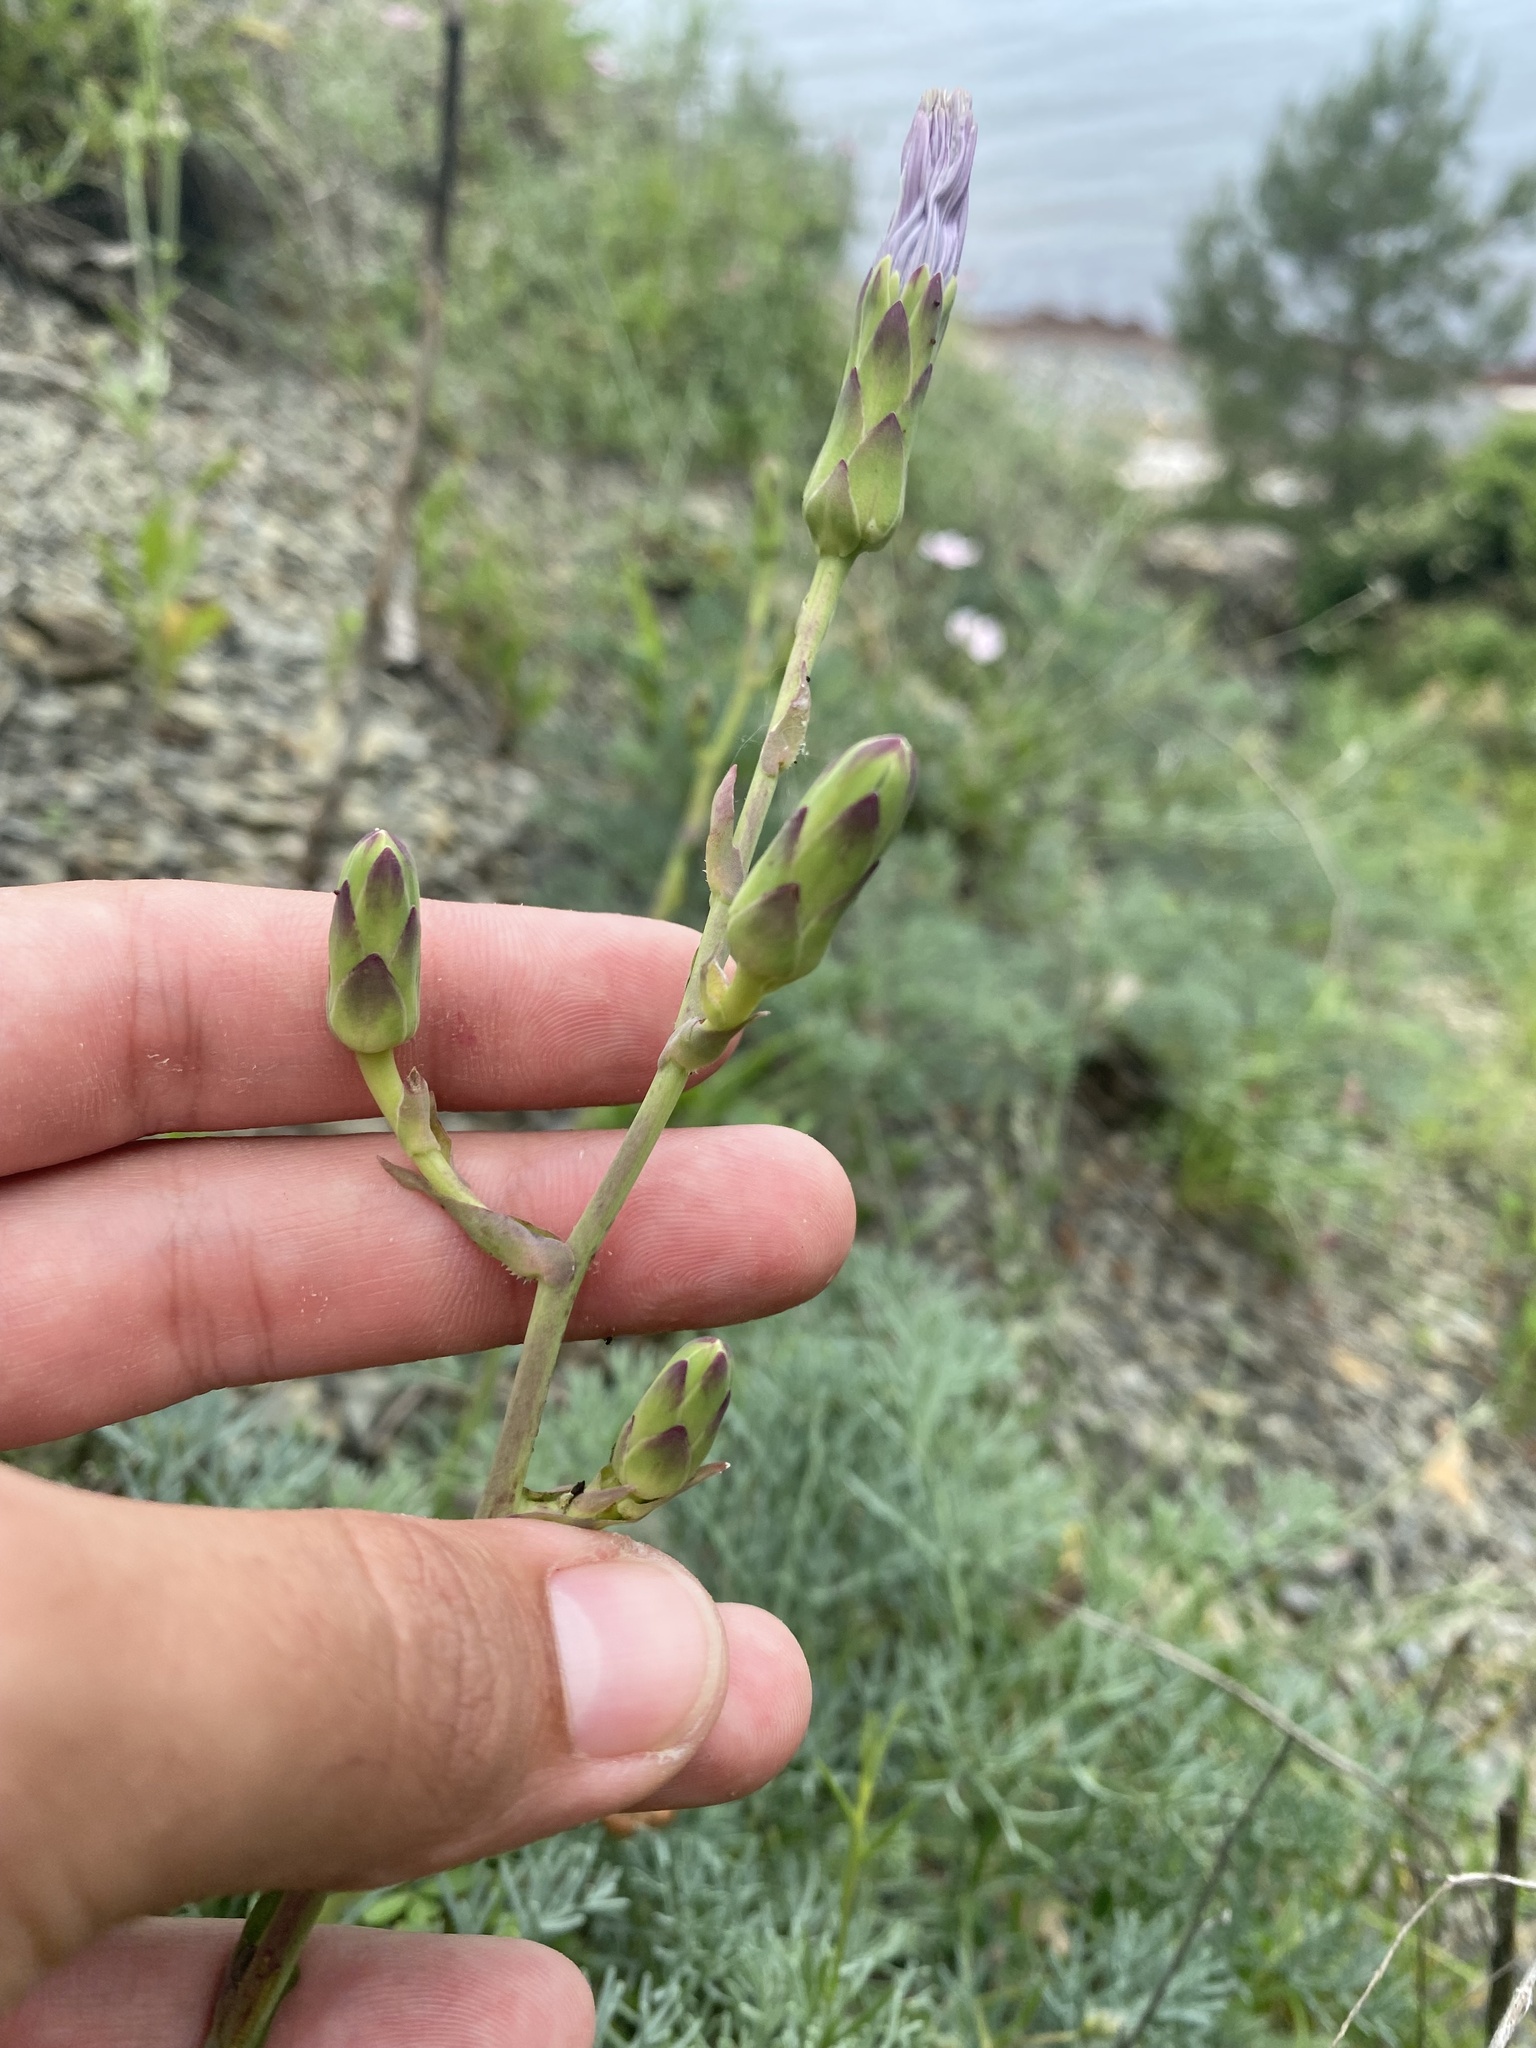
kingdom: Plantae
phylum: Tracheophyta
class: Magnoliopsida
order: Asterales
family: Asteraceae
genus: Lactuca
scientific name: Lactuca tuberosa
